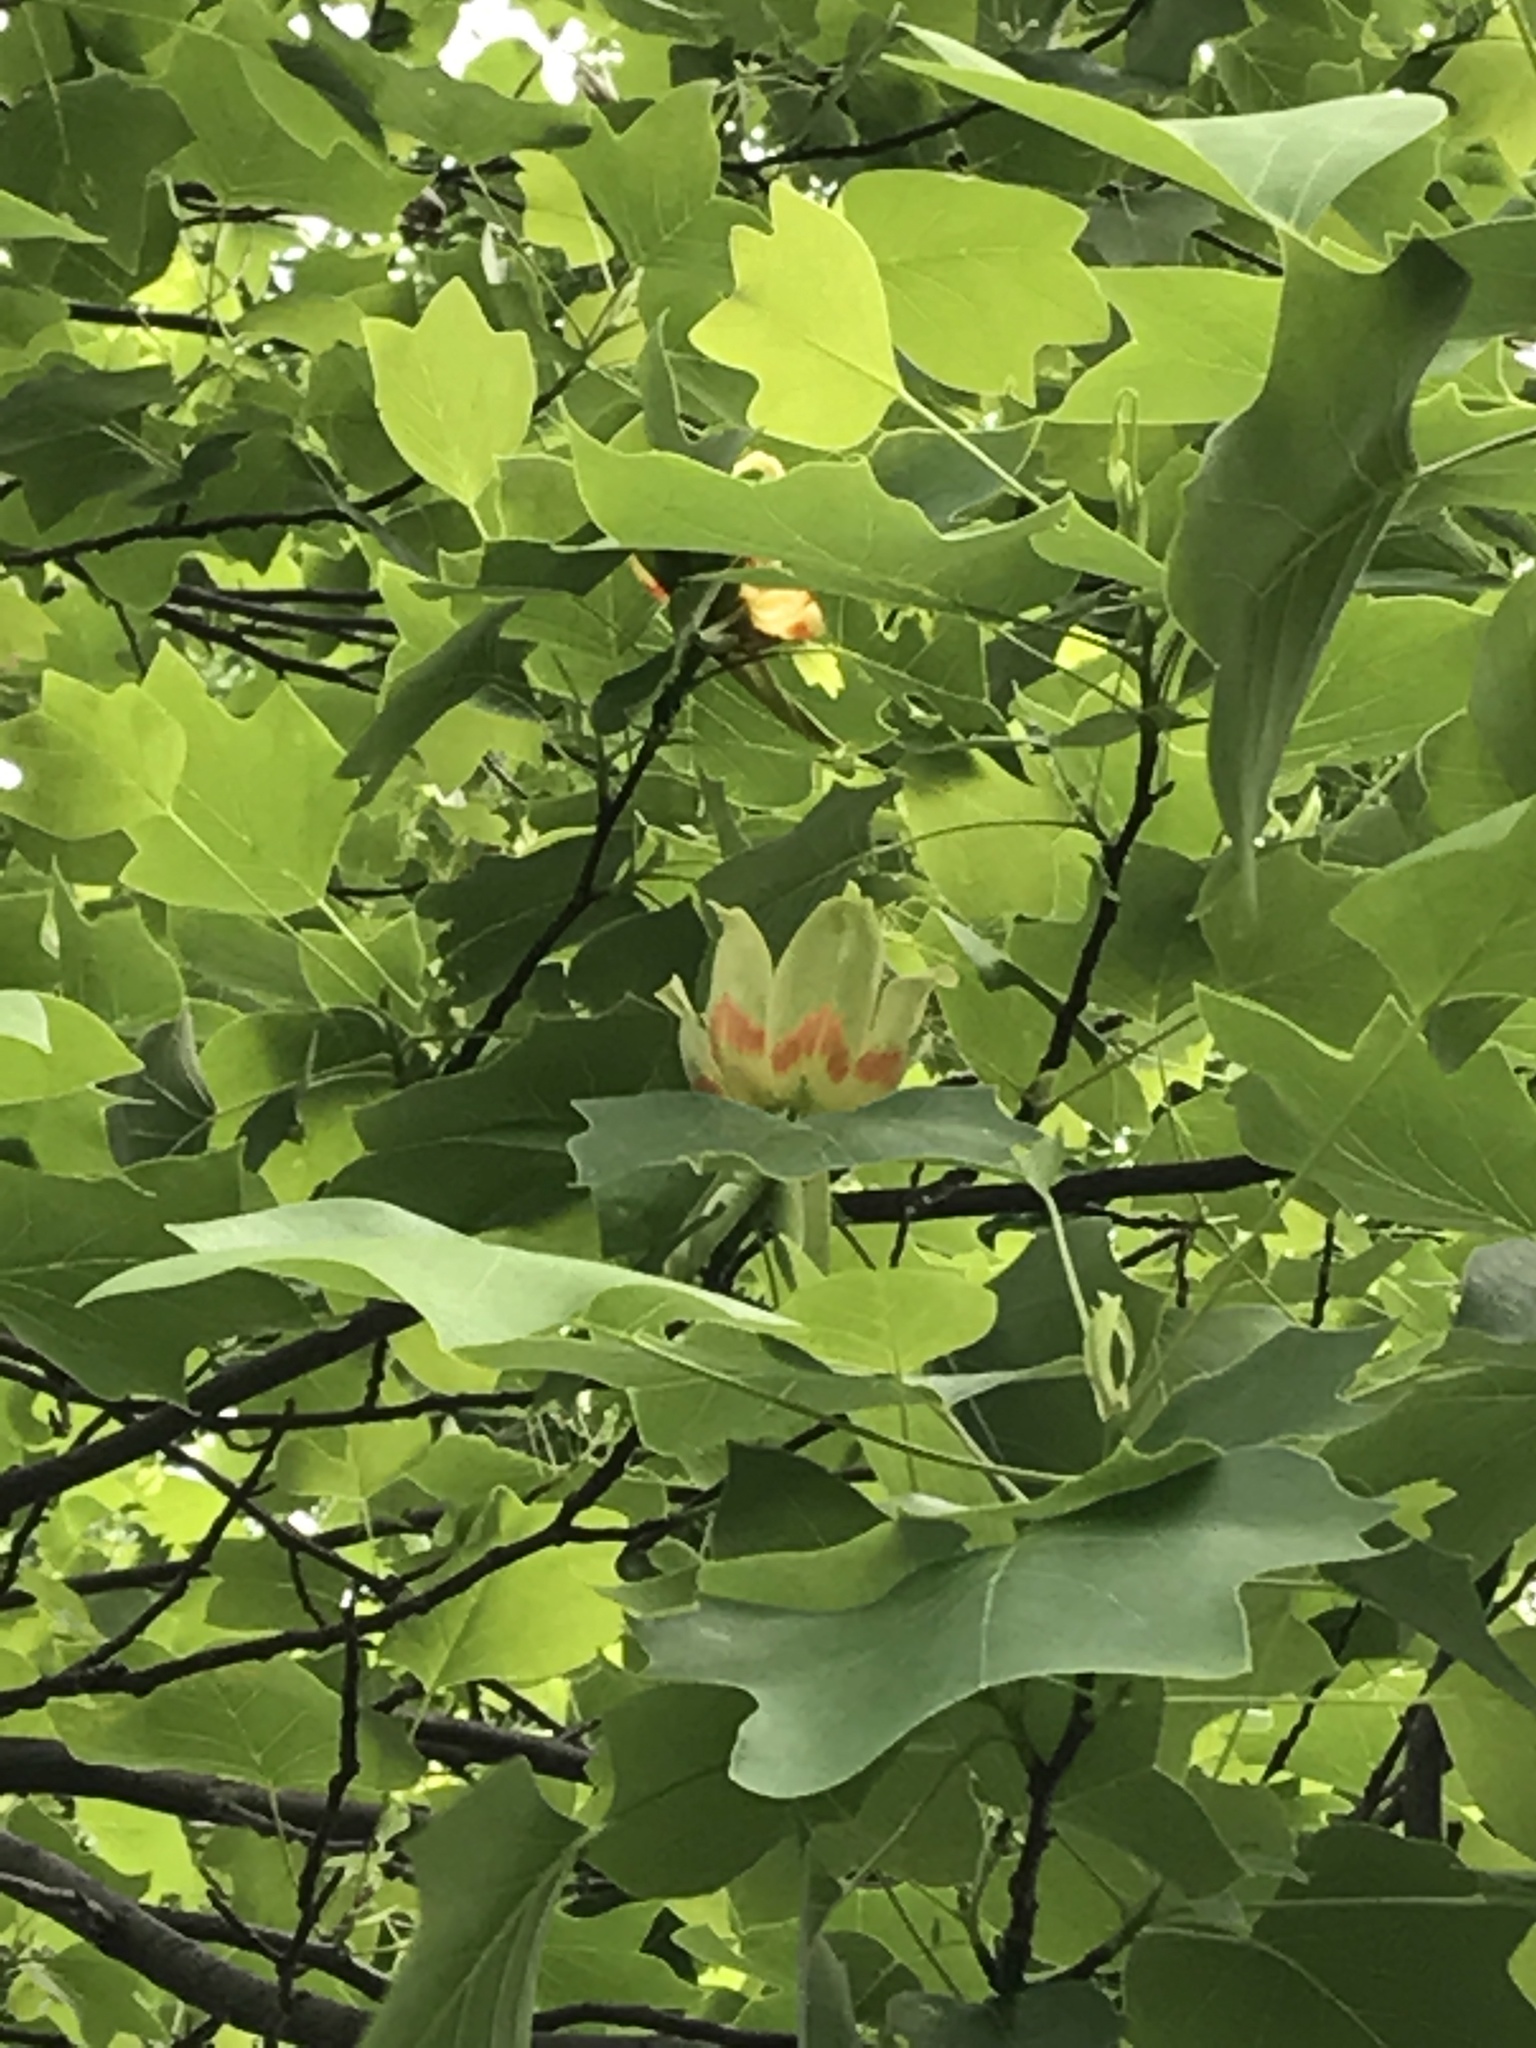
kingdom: Plantae
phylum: Tracheophyta
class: Magnoliopsida
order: Magnoliales
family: Magnoliaceae
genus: Liriodendron
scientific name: Liriodendron tulipifera
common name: Tulip tree
